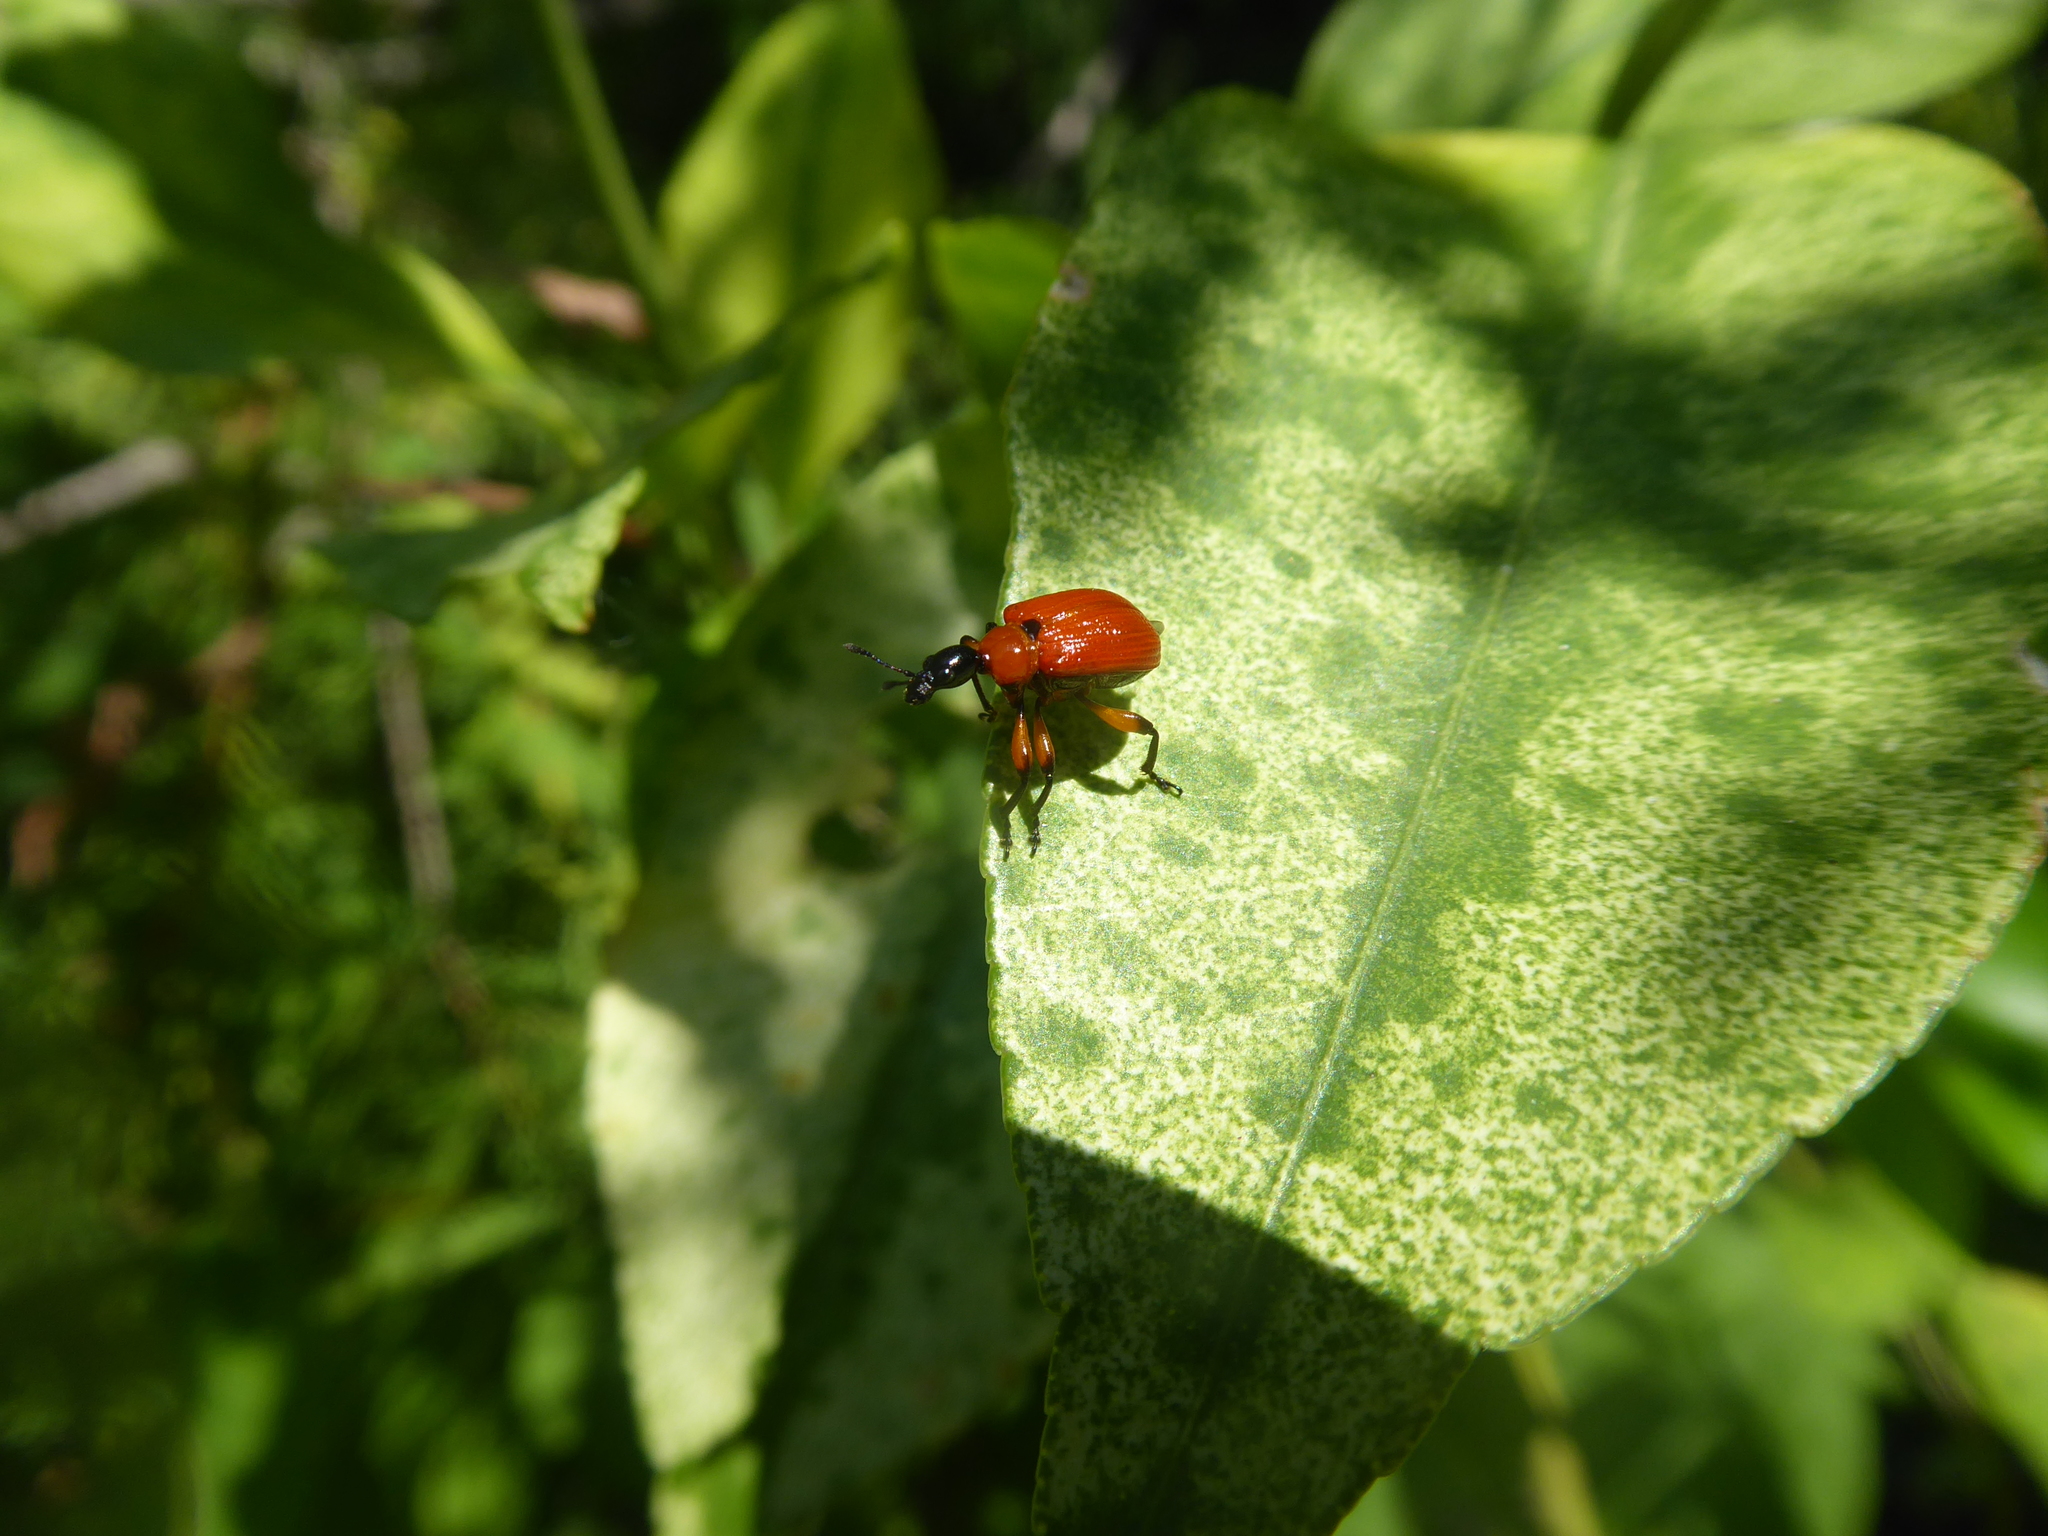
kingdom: Animalia
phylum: Arthropoda
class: Insecta
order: Coleoptera
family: Attelabidae
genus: Apoderus
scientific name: Apoderus coryli
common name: Hazel leaf roller
